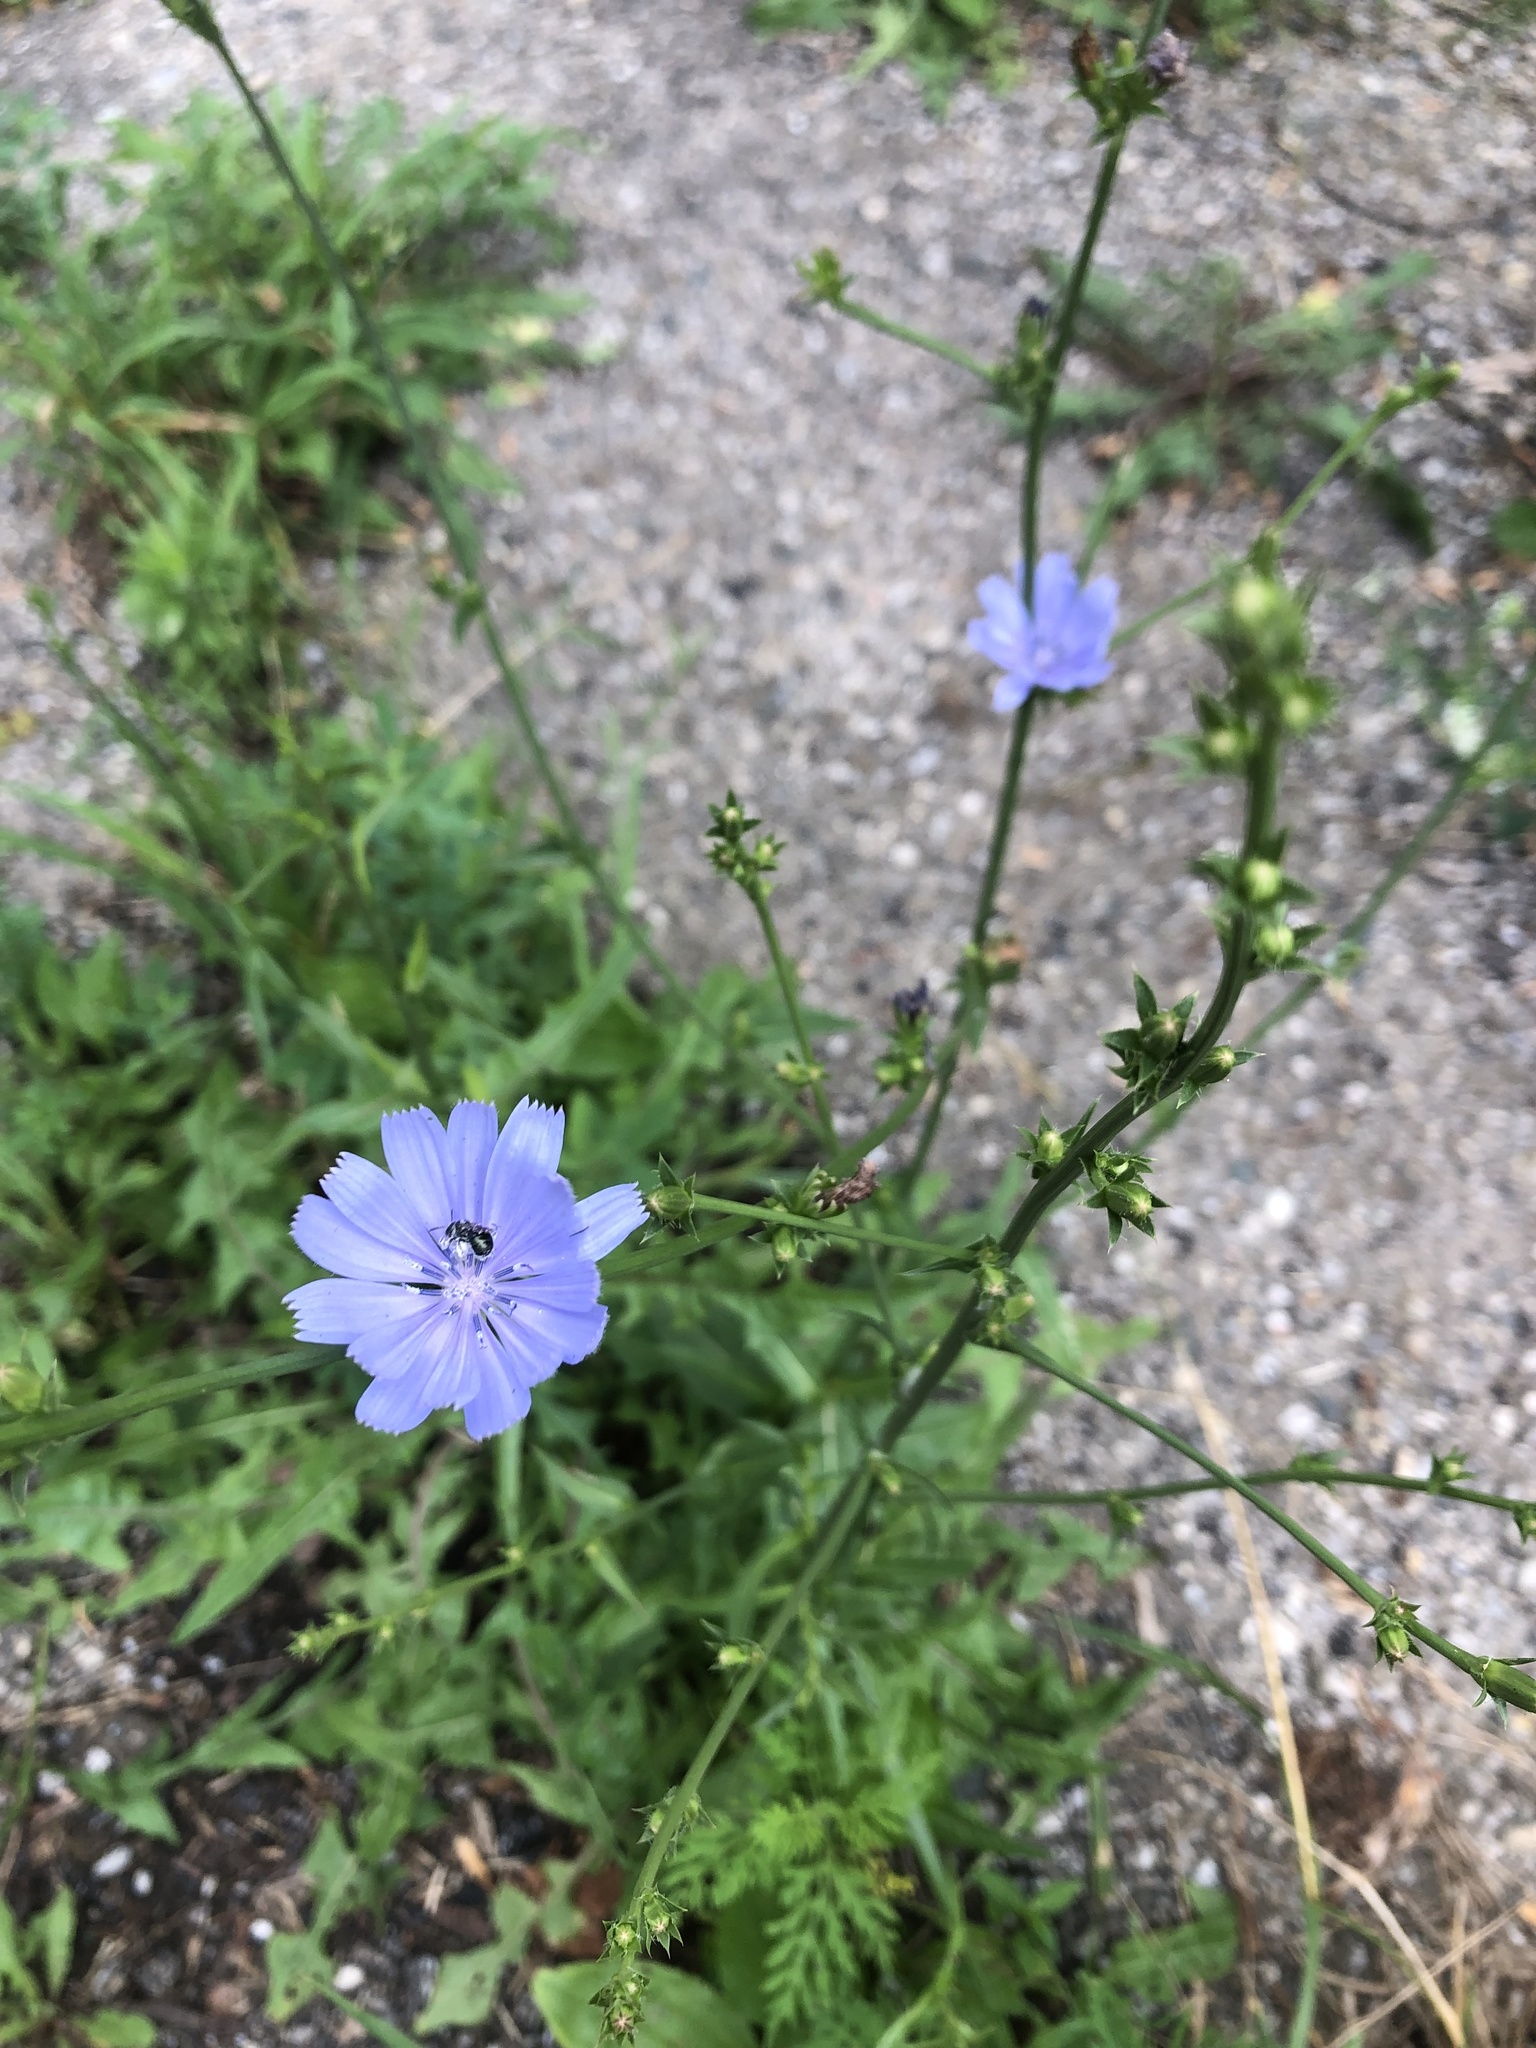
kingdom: Plantae
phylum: Tracheophyta
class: Magnoliopsida
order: Asterales
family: Asteraceae
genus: Cichorium
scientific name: Cichorium intybus
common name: Chicory
